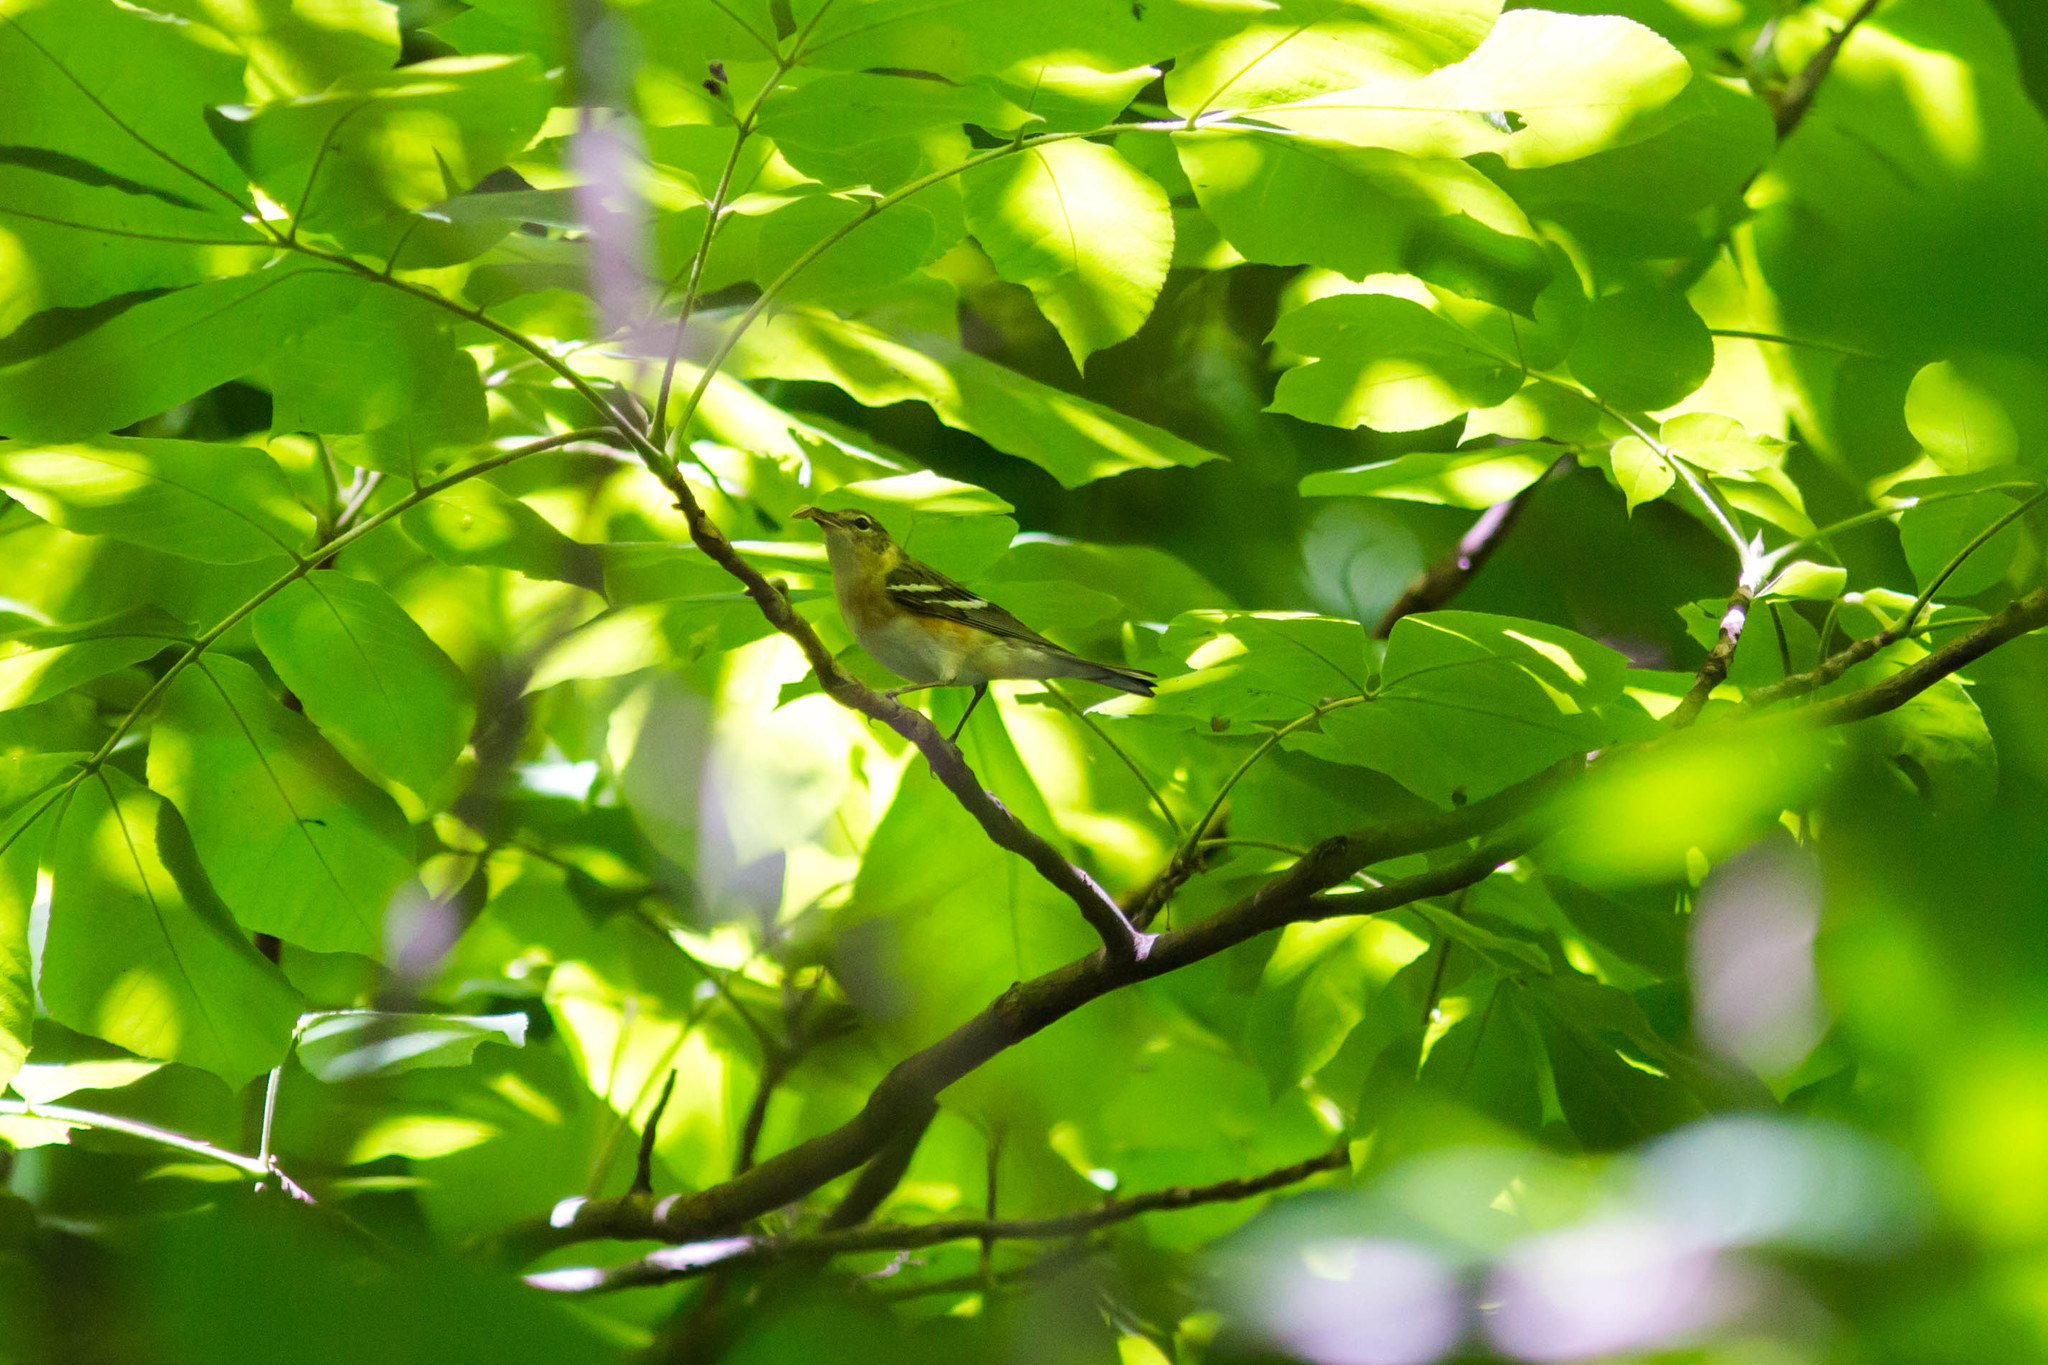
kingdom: Animalia
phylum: Chordata
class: Aves
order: Passeriformes
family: Parulidae
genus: Setophaga
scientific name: Setophaga castanea
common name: Bay-breasted warbler
